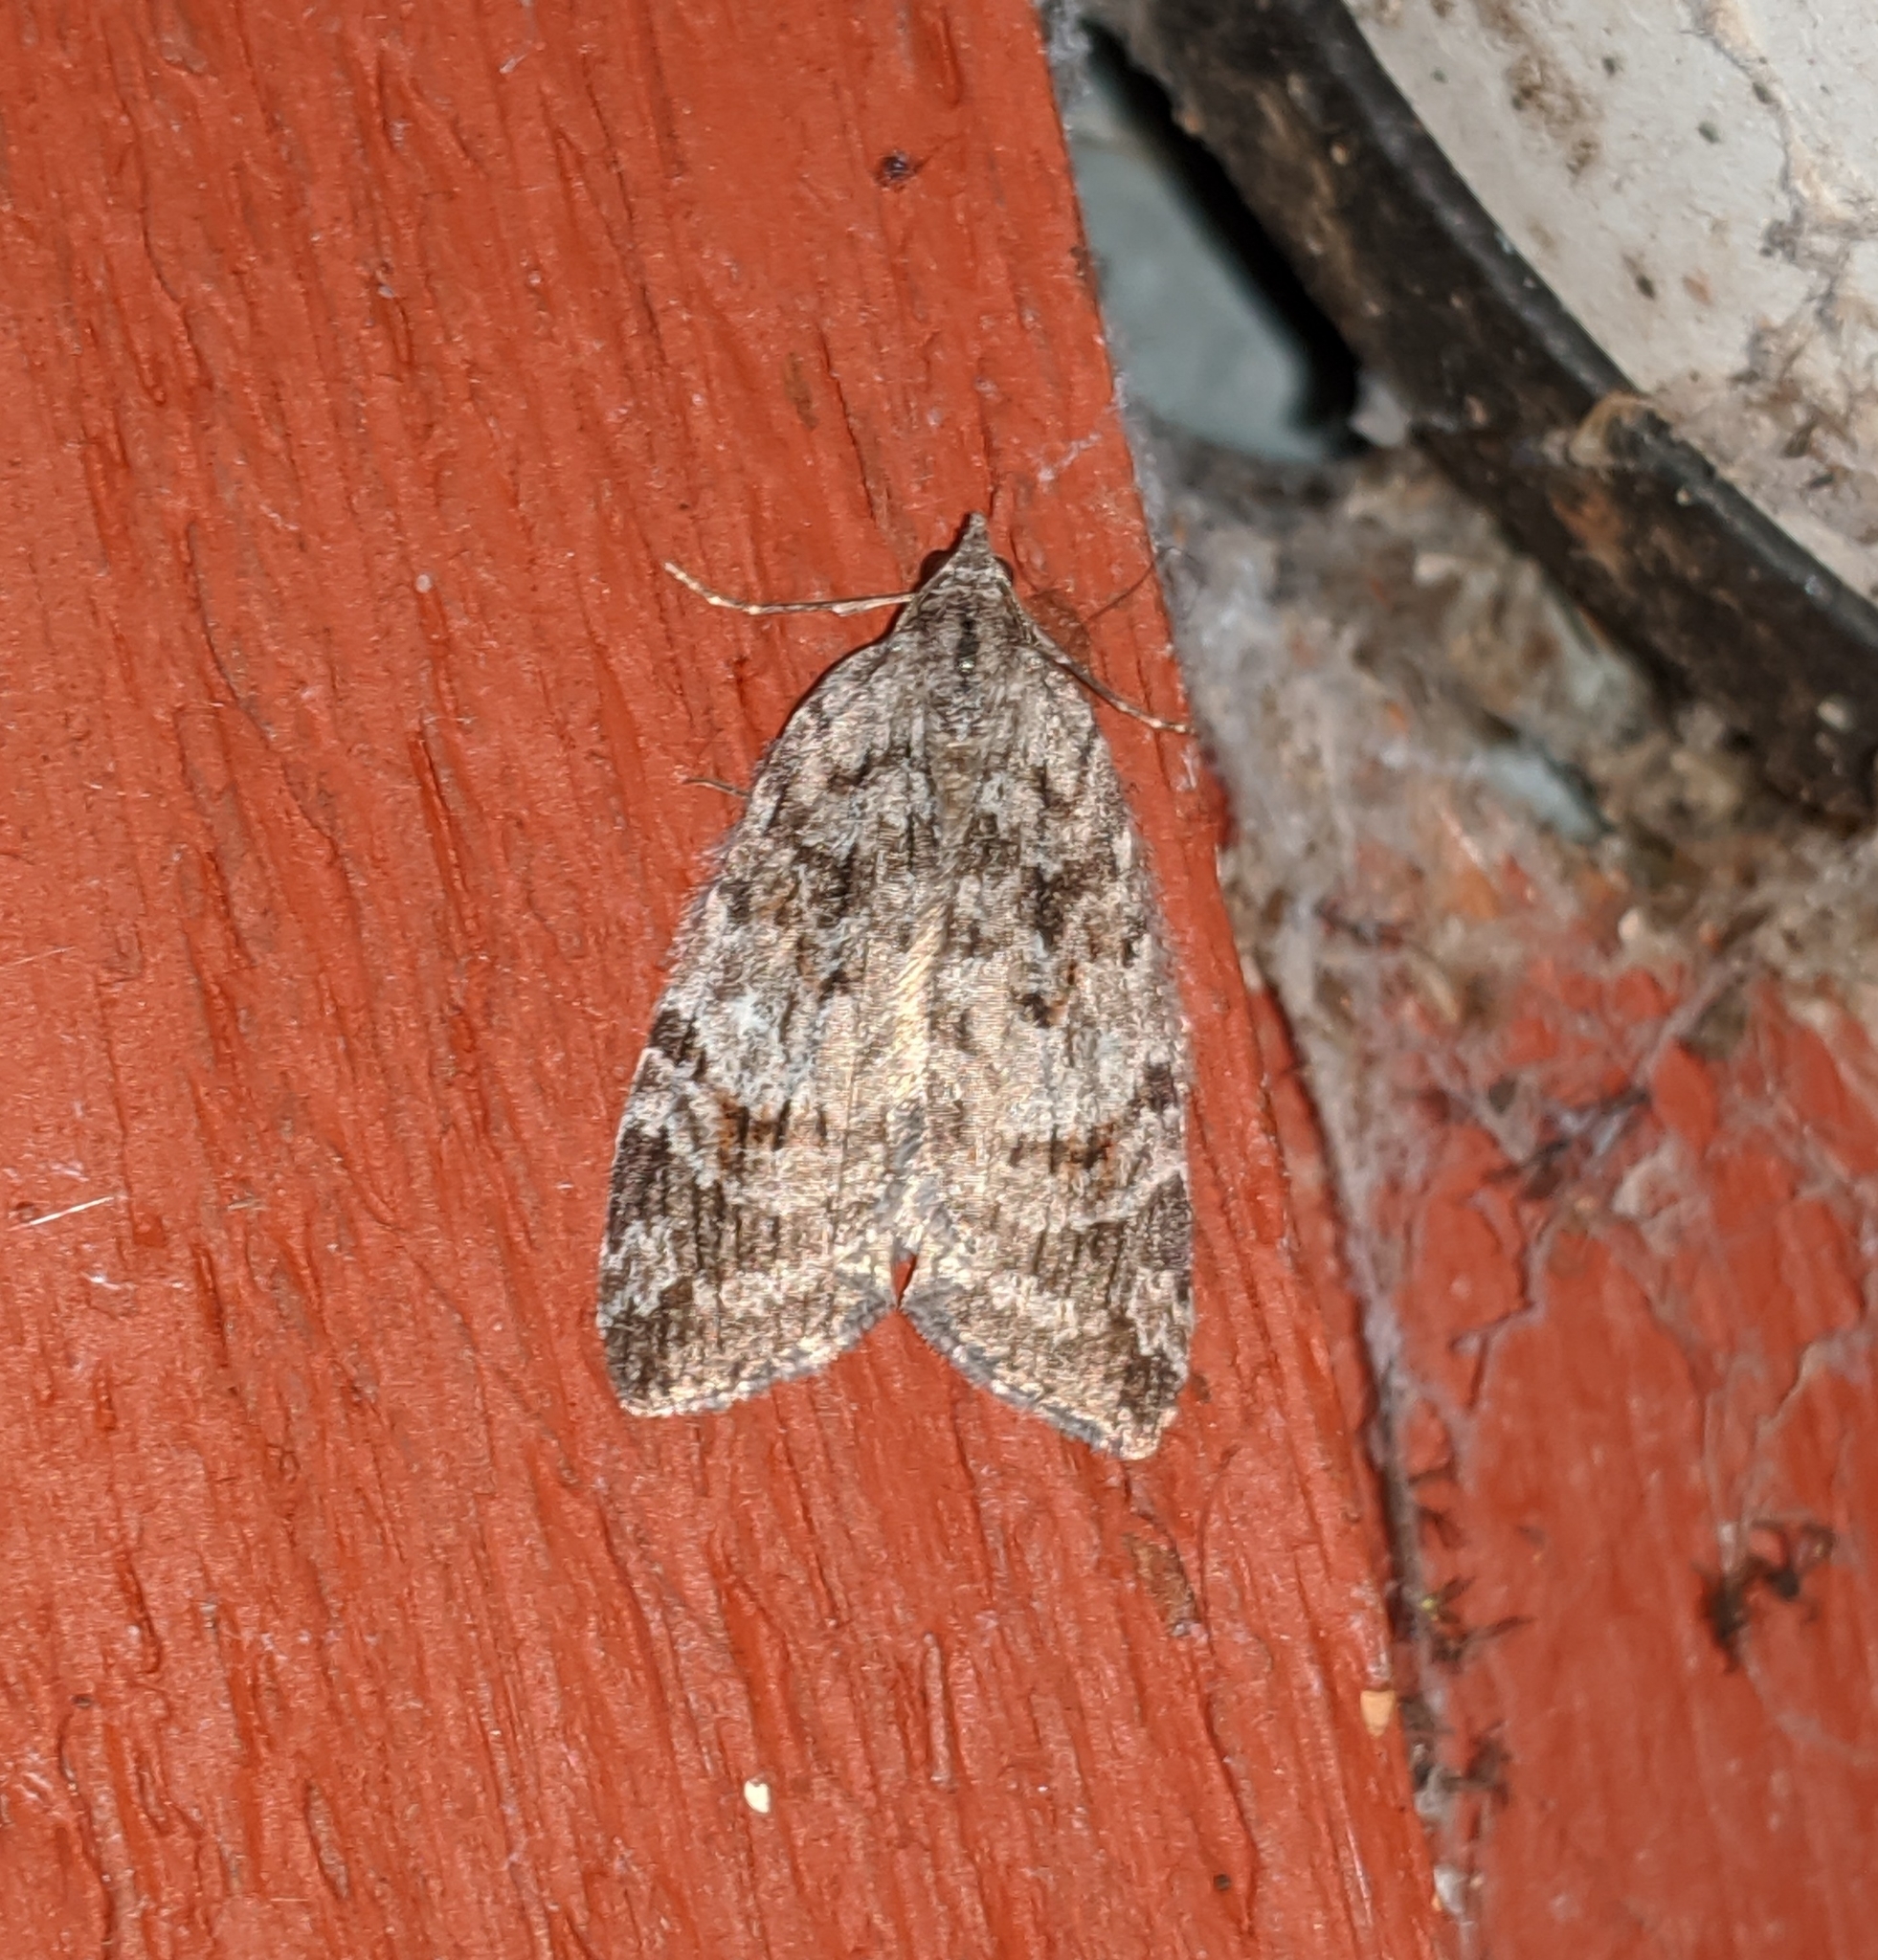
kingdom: Animalia
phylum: Arthropoda
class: Insecta
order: Lepidoptera
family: Geometridae
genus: Hydriomena
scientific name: Hydriomena manzanita
